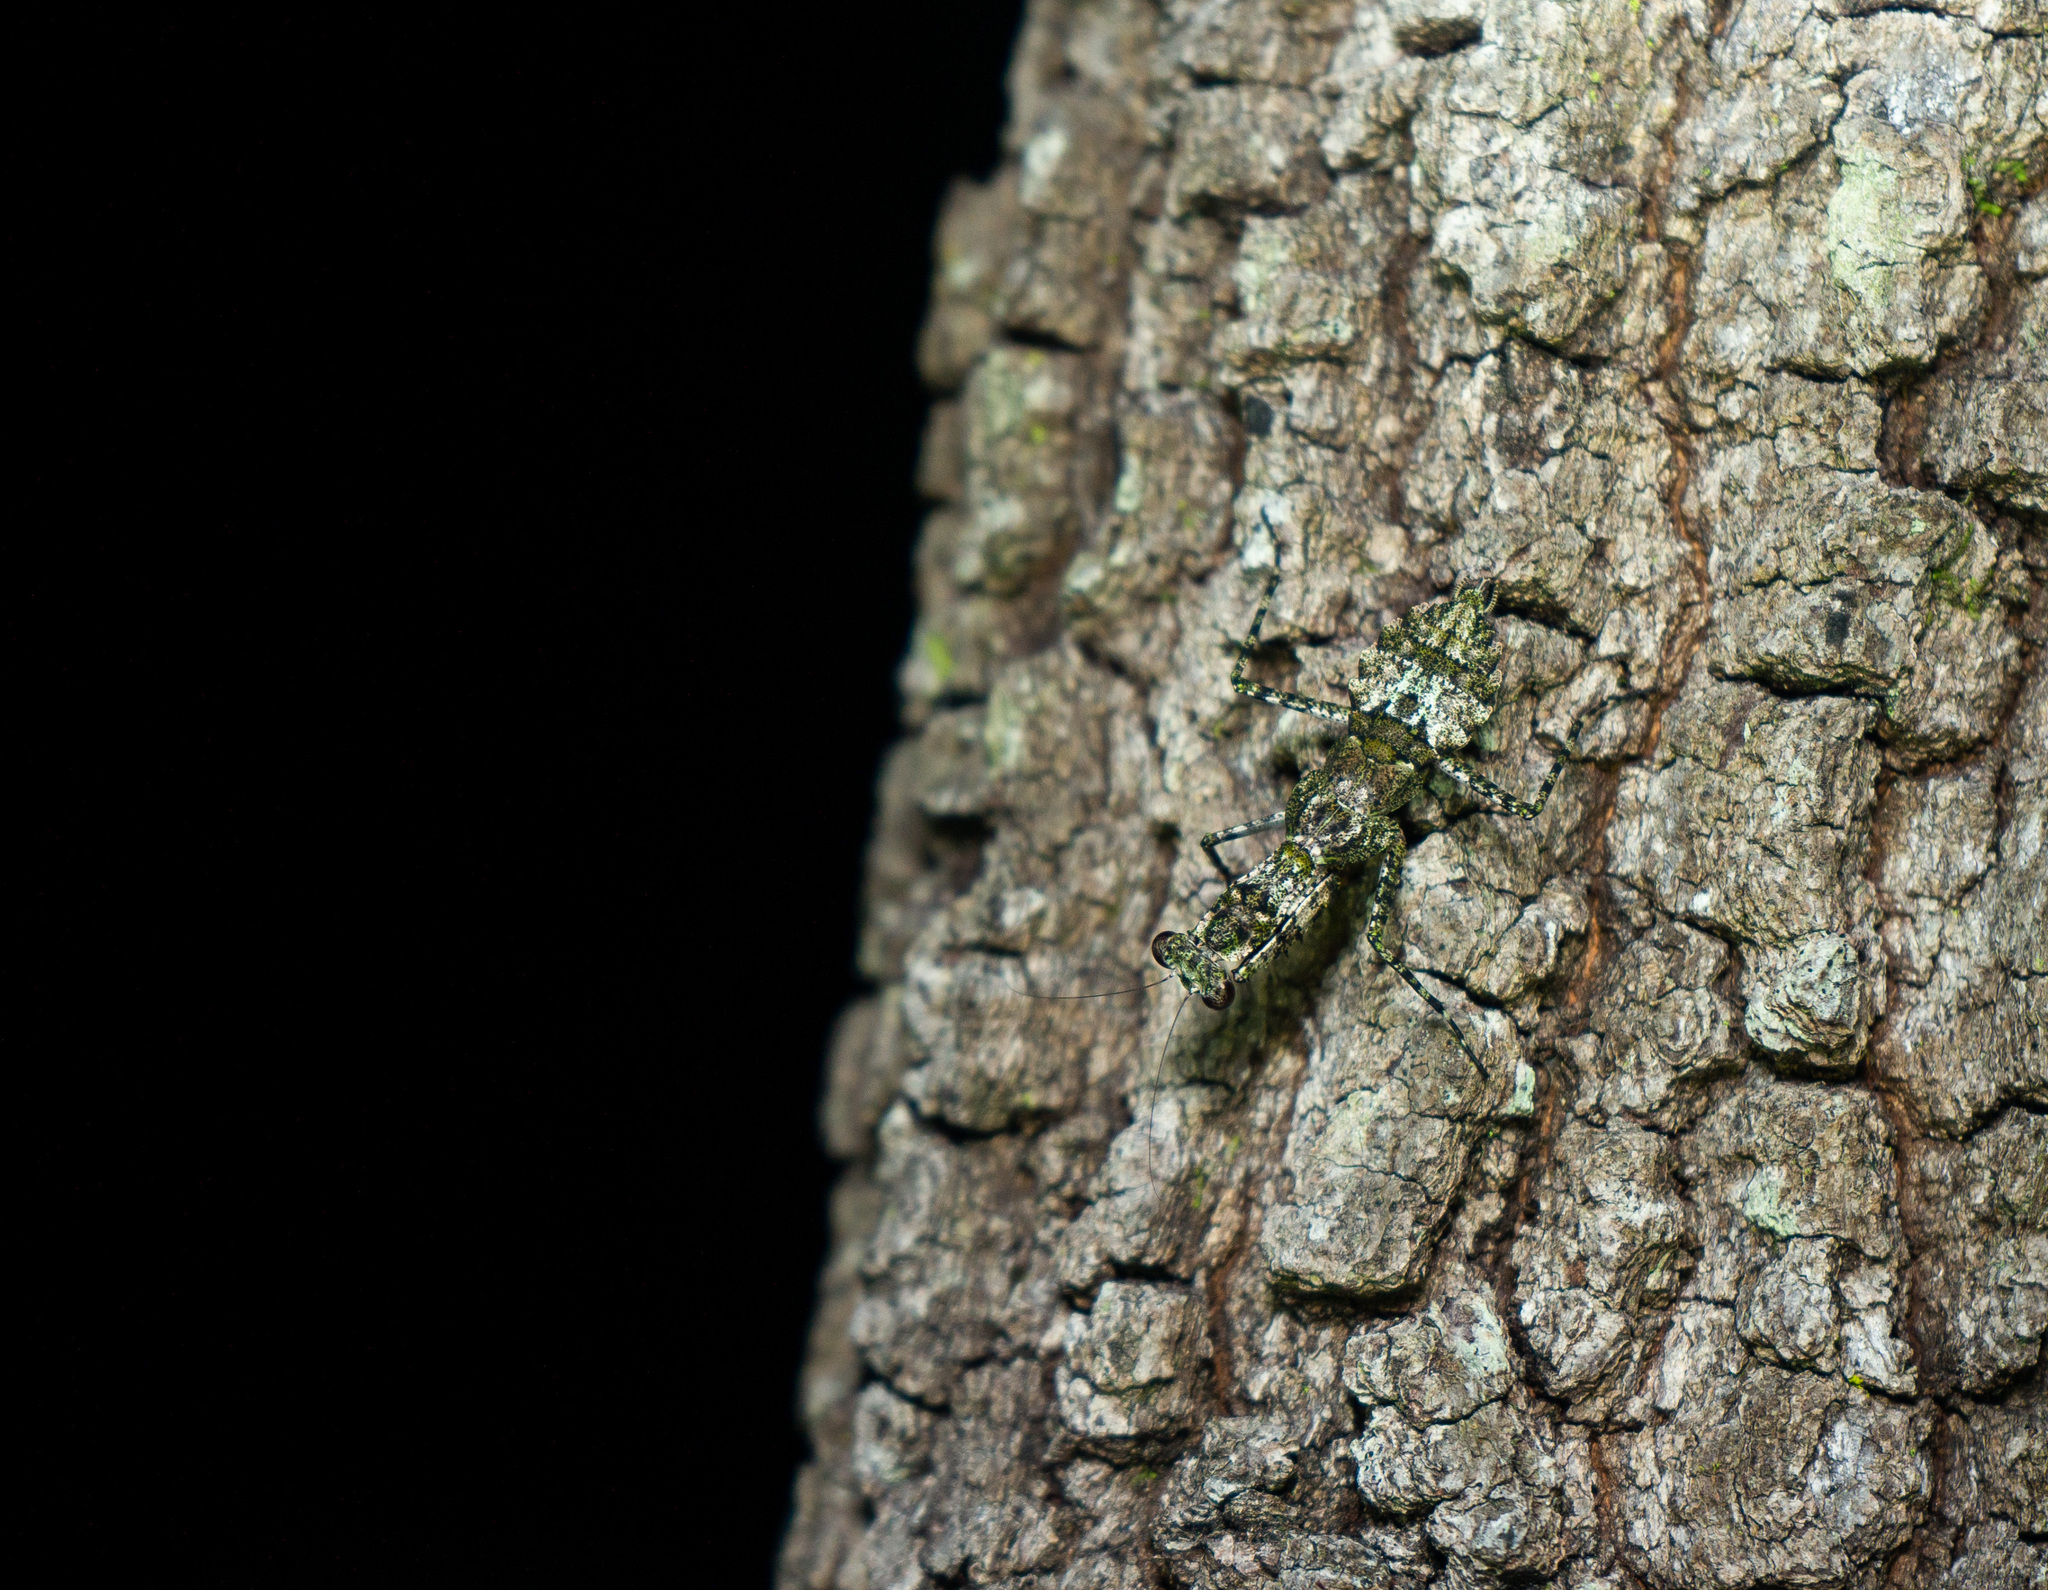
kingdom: Animalia
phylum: Arthropoda
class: Insecta
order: Mantodea
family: Epaphroditidae
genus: Gonatista
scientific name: Gonatista grisea
